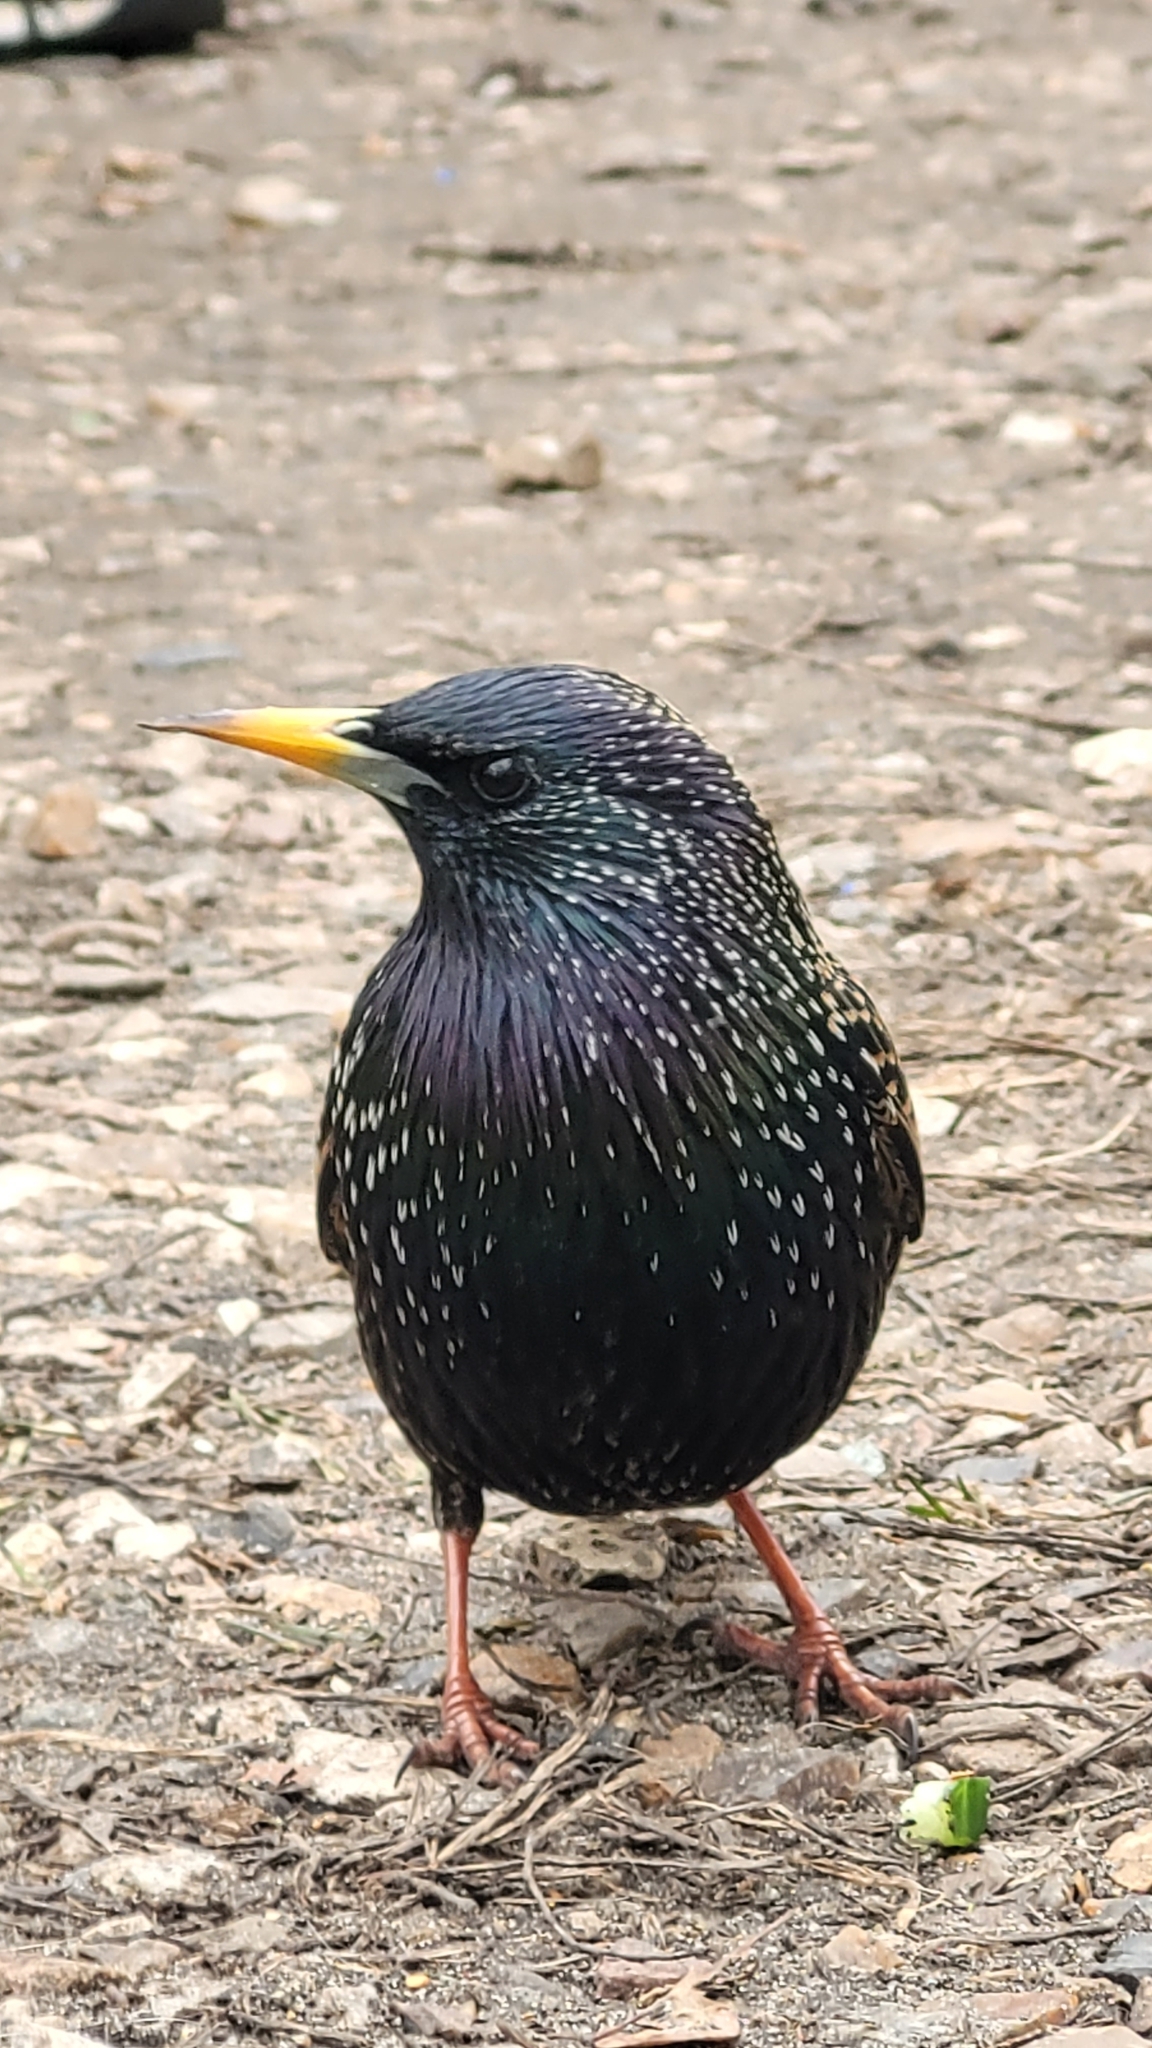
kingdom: Animalia
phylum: Chordata
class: Aves
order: Passeriformes
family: Sturnidae
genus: Sturnus
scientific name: Sturnus vulgaris
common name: Common starling
